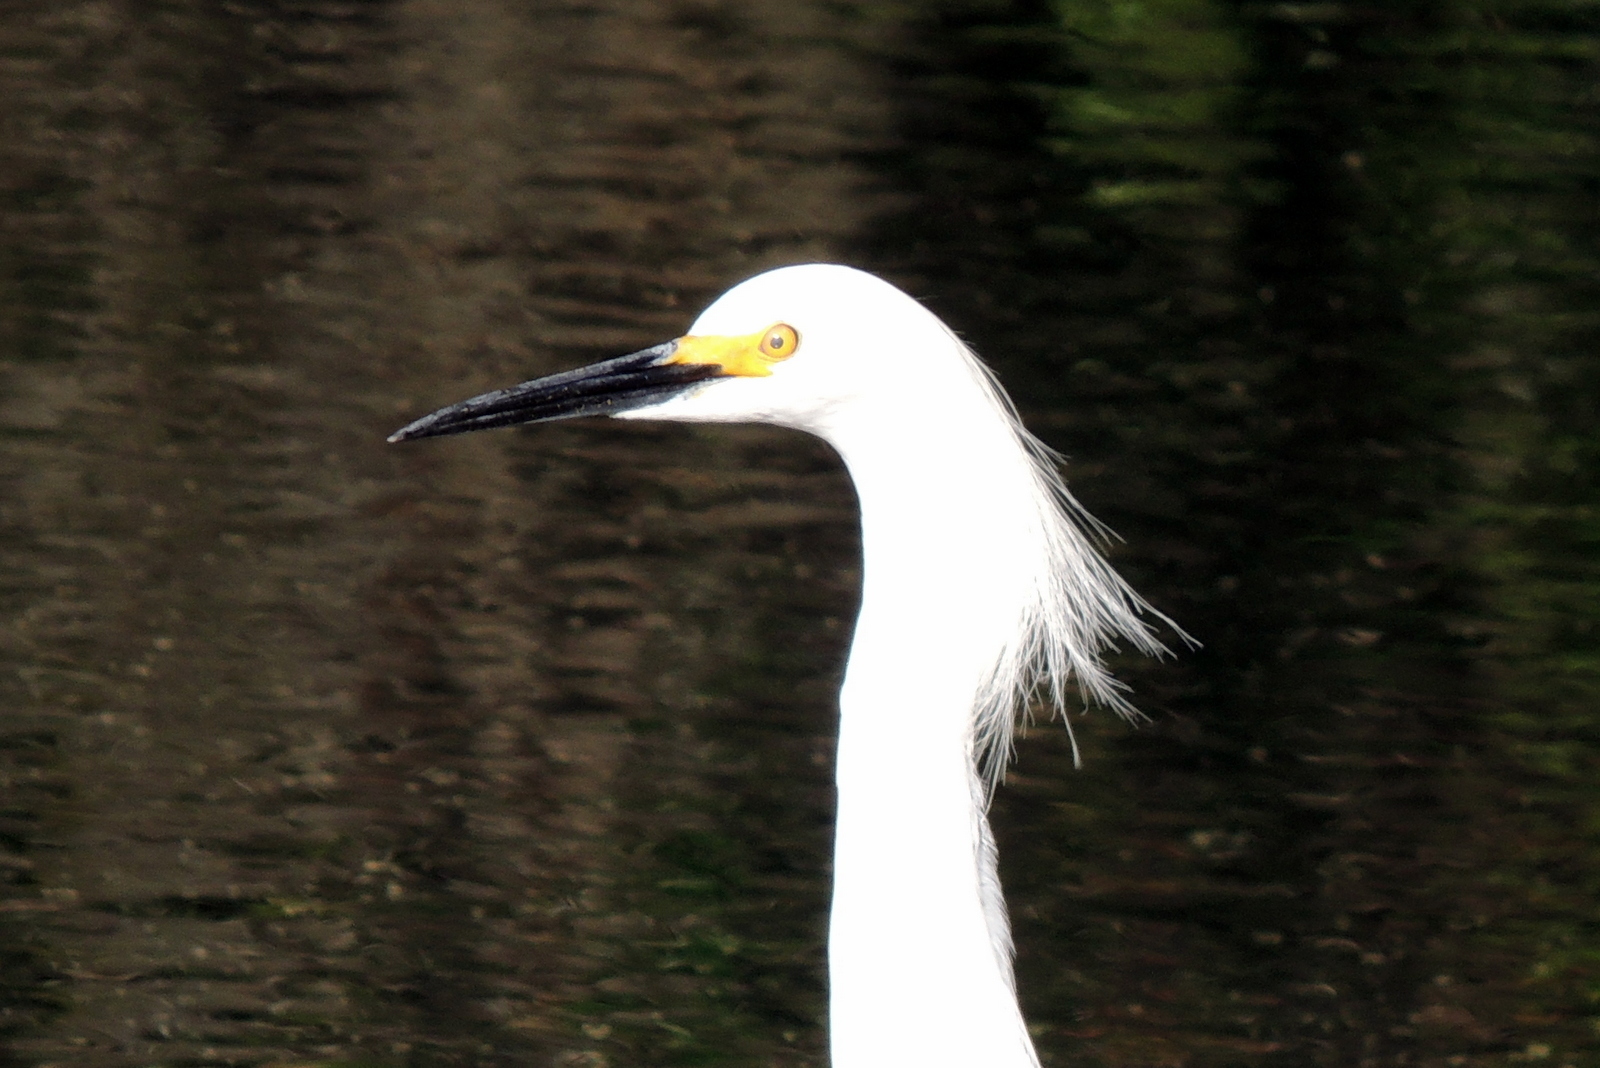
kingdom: Animalia
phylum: Chordata
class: Aves
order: Pelecaniformes
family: Ardeidae
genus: Egretta
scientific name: Egretta thula
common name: Snowy egret
